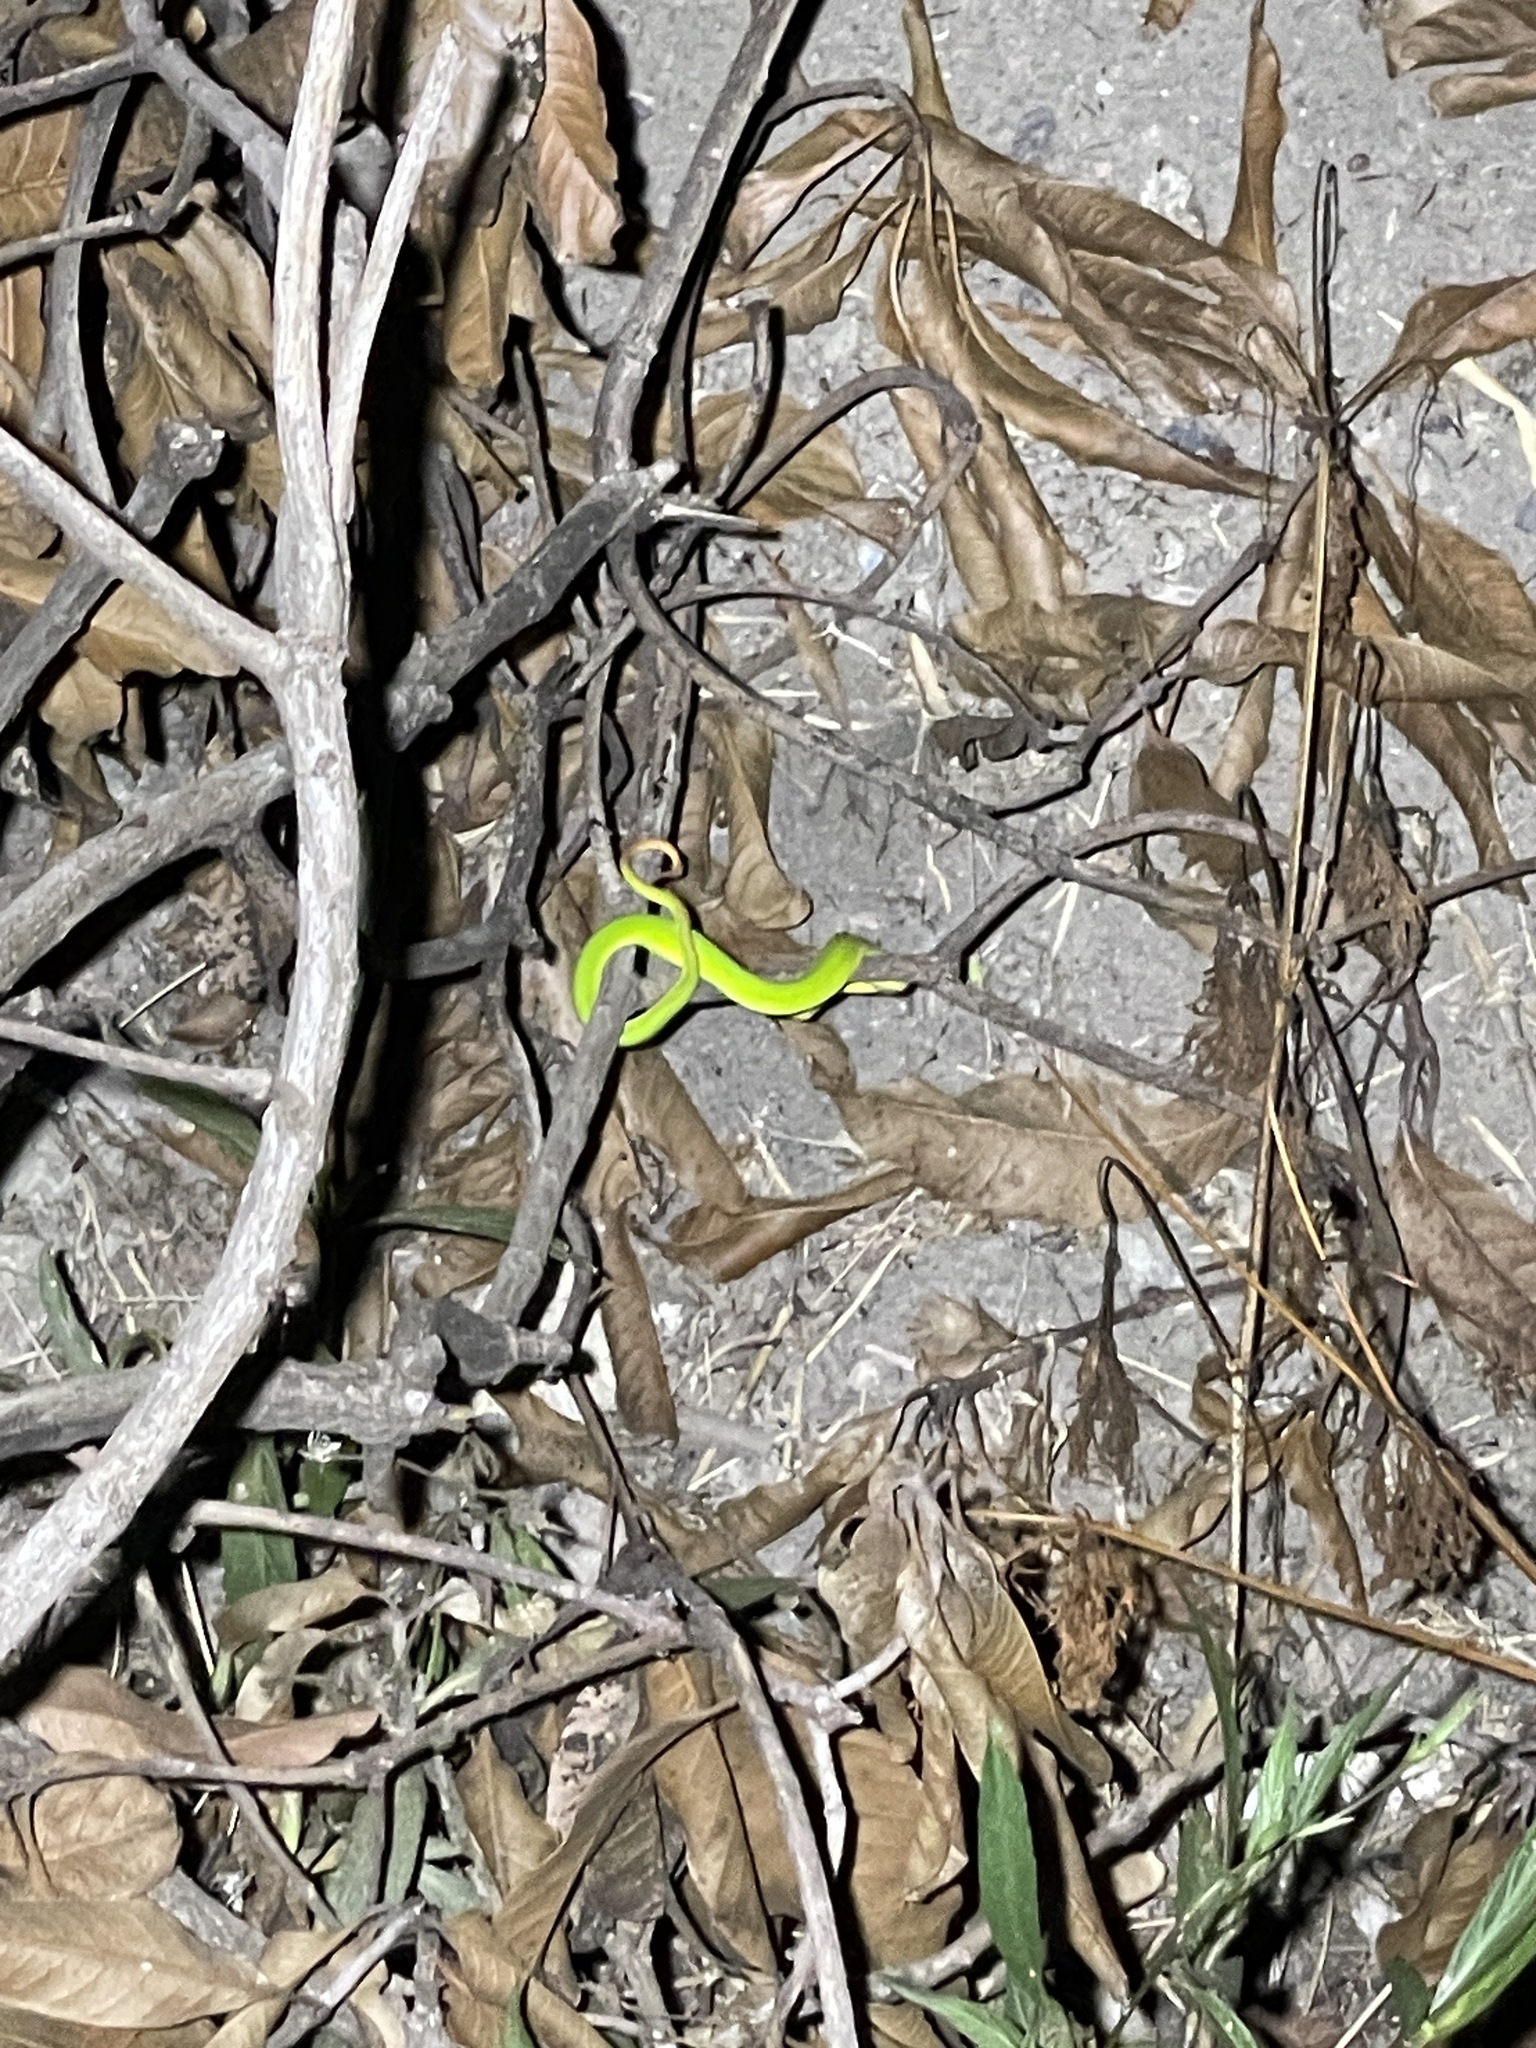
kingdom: Animalia
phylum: Chordata
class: Squamata
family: Viperidae
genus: Trimeresurus
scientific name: Trimeresurus albolabris
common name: White-lipped pitviper
